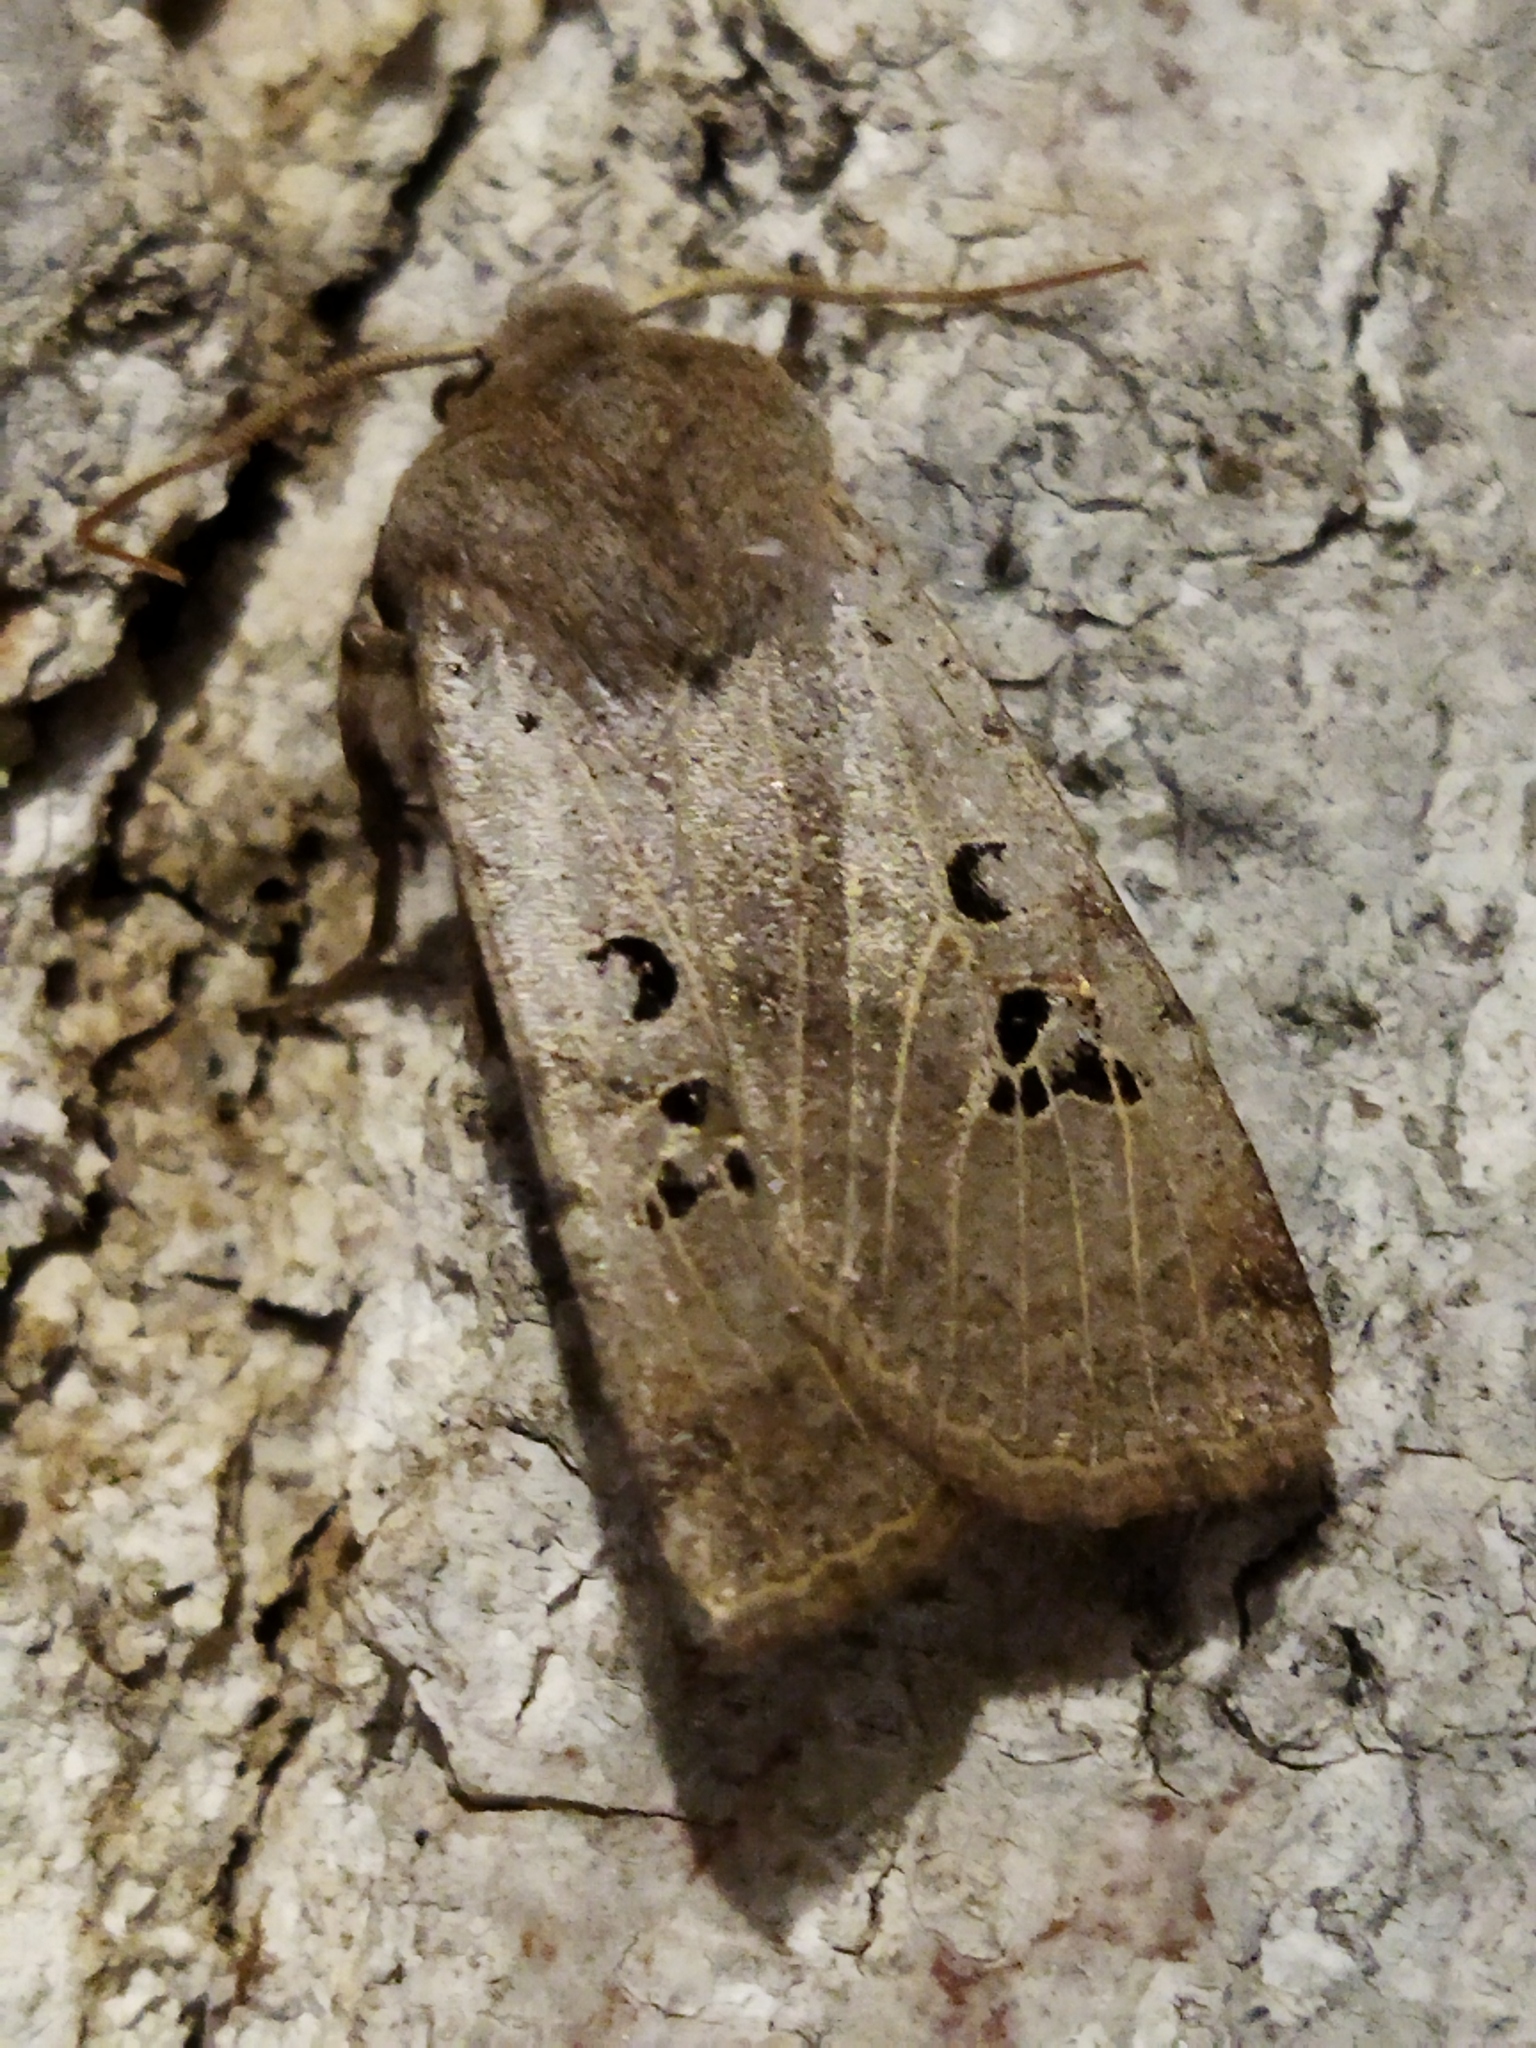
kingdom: Animalia
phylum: Arthropoda
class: Insecta
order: Lepidoptera
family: Noctuidae
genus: Conistra
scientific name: Conistra rubiginosa
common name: Black-spotted chestnut
